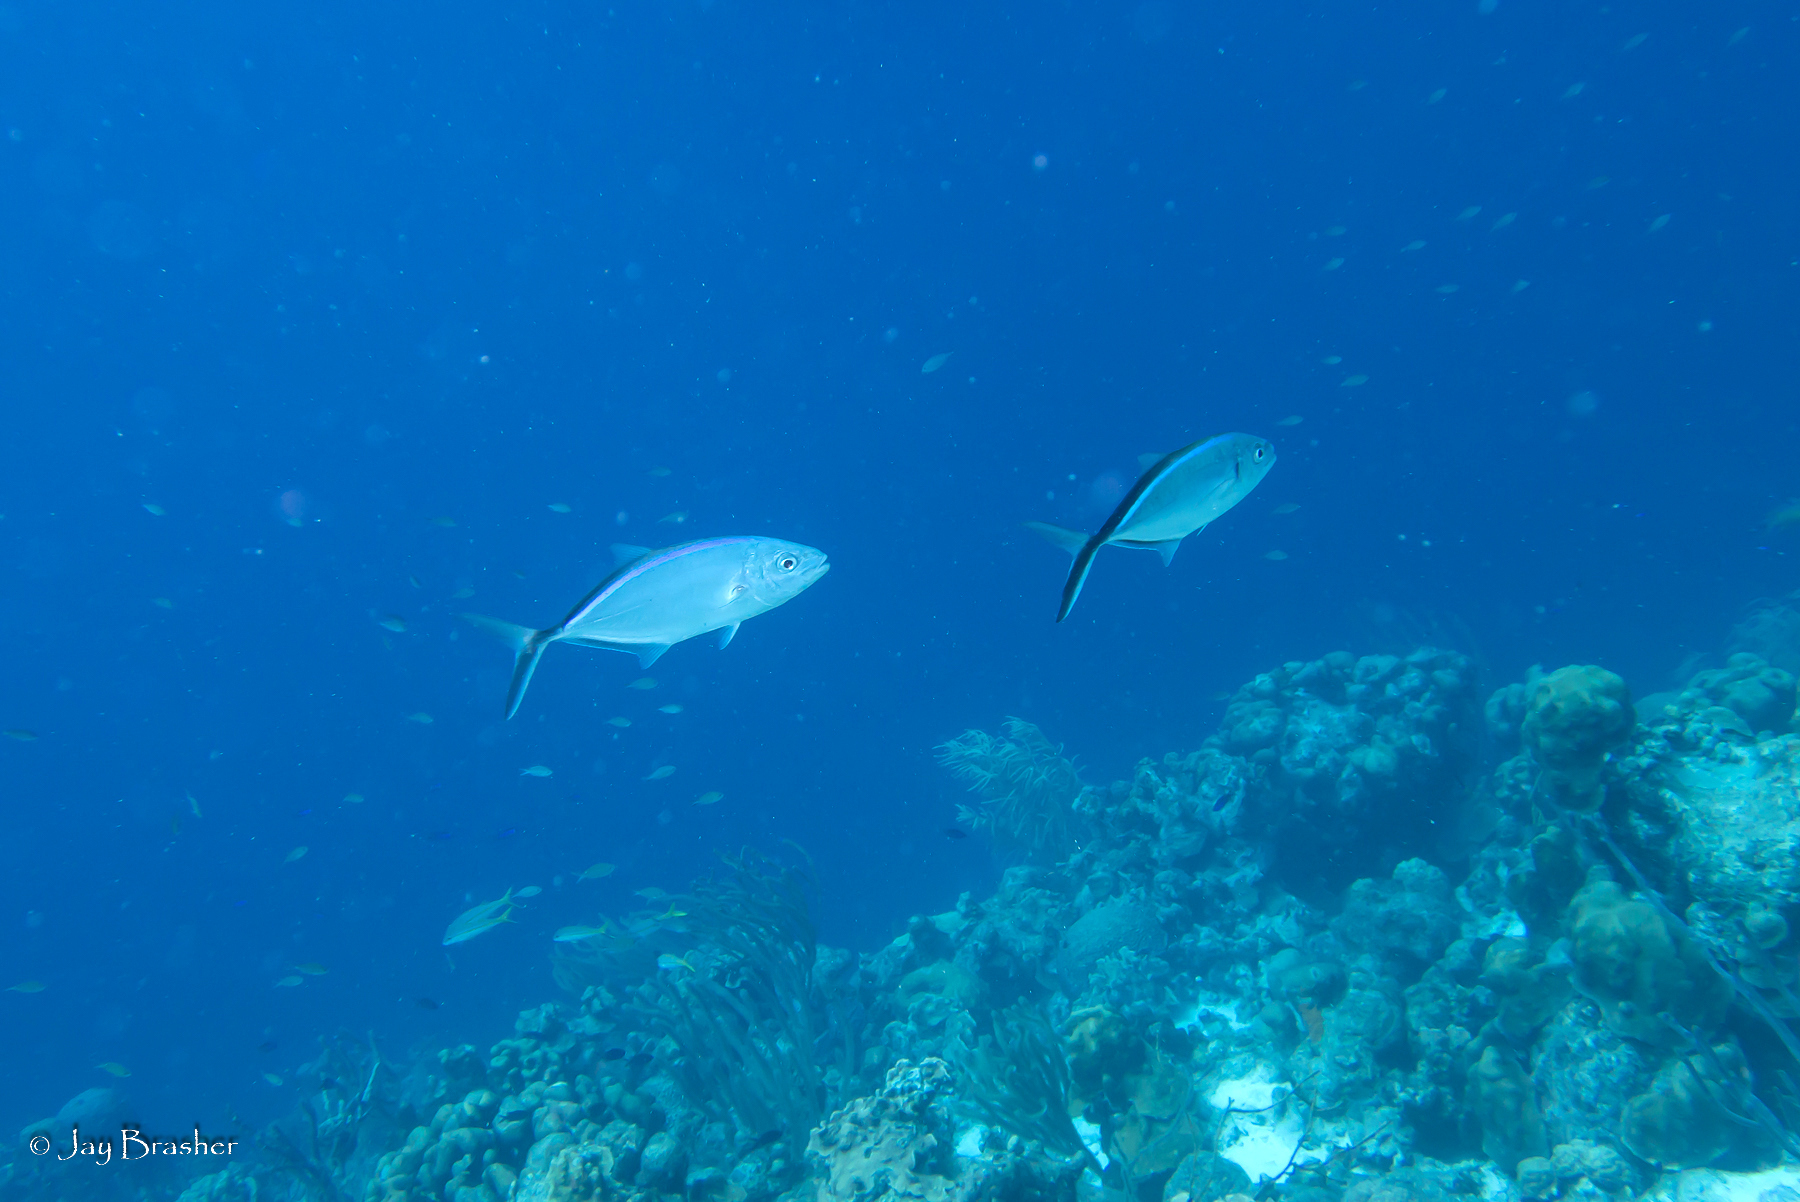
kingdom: Animalia
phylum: Chordata
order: Perciformes
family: Carangidae
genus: Caranx
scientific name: Caranx ruber
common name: Bar jack
